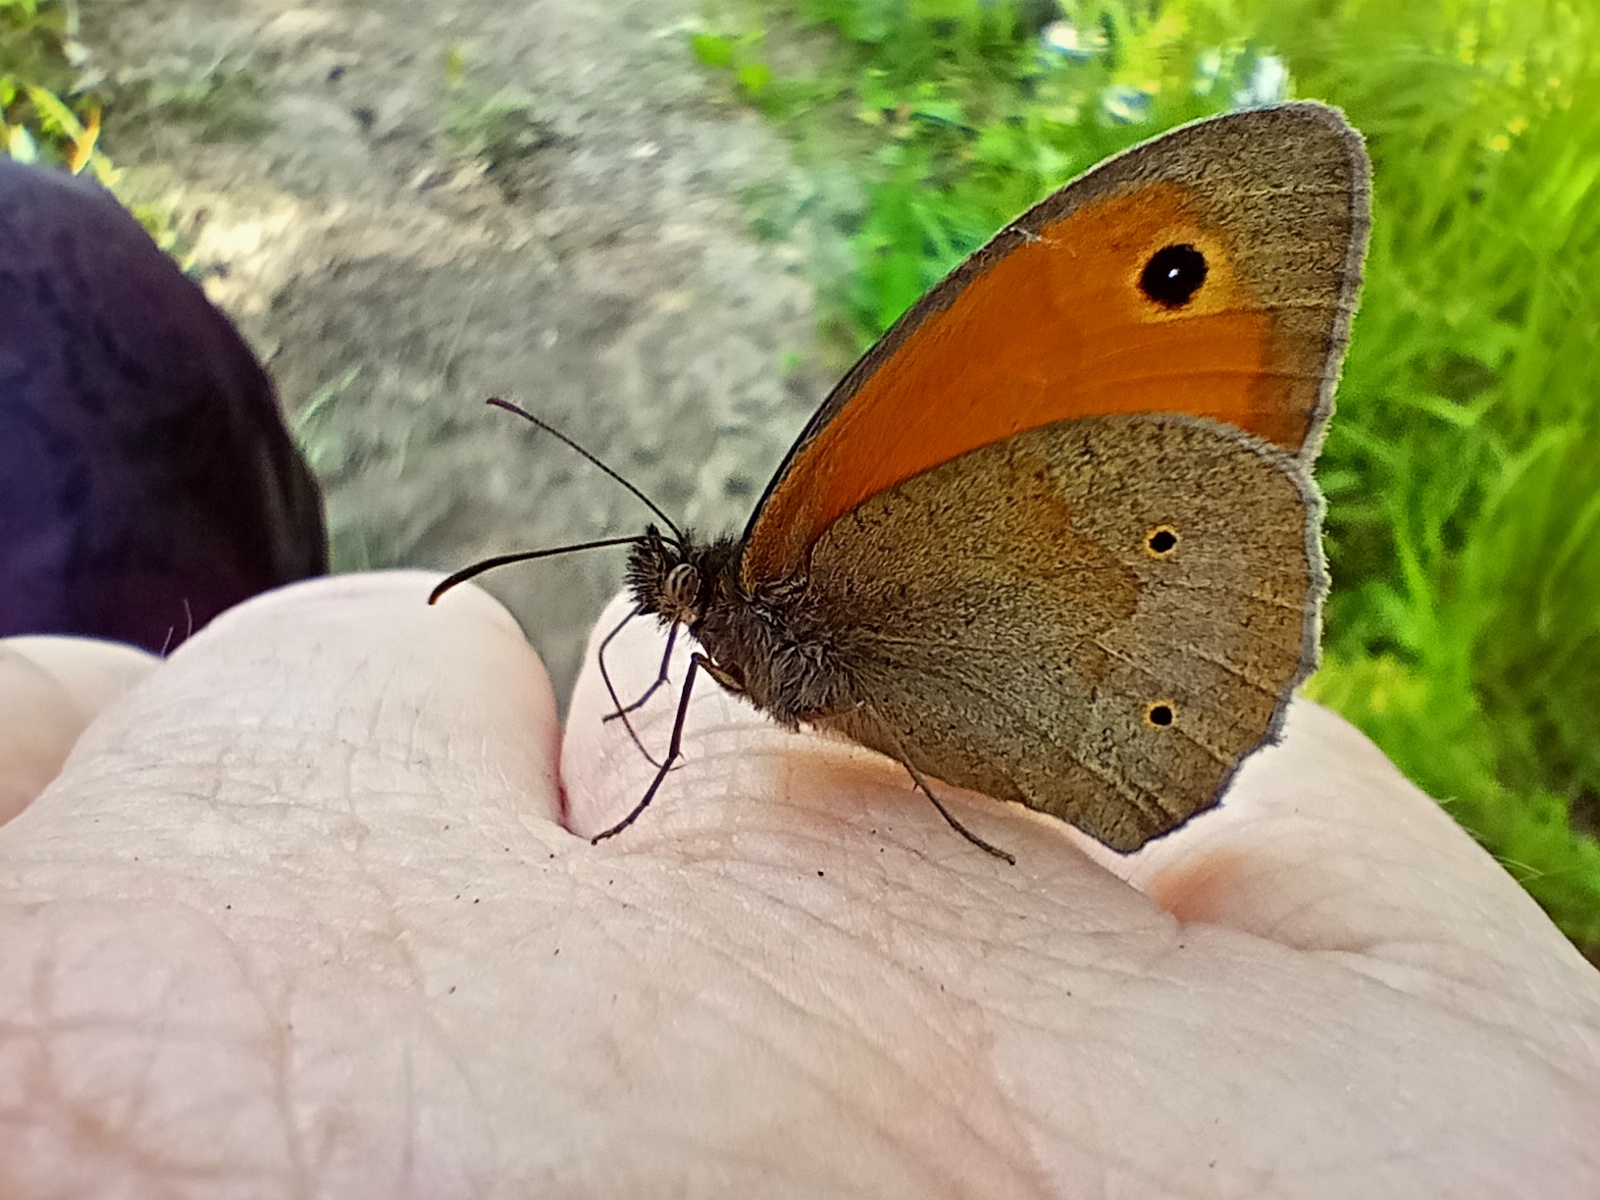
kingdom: Animalia
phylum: Arthropoda
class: Insecta
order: Lepidoptera
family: Nymphalidae
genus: Maniola
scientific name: Maniola jurtina
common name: Meadow brown
